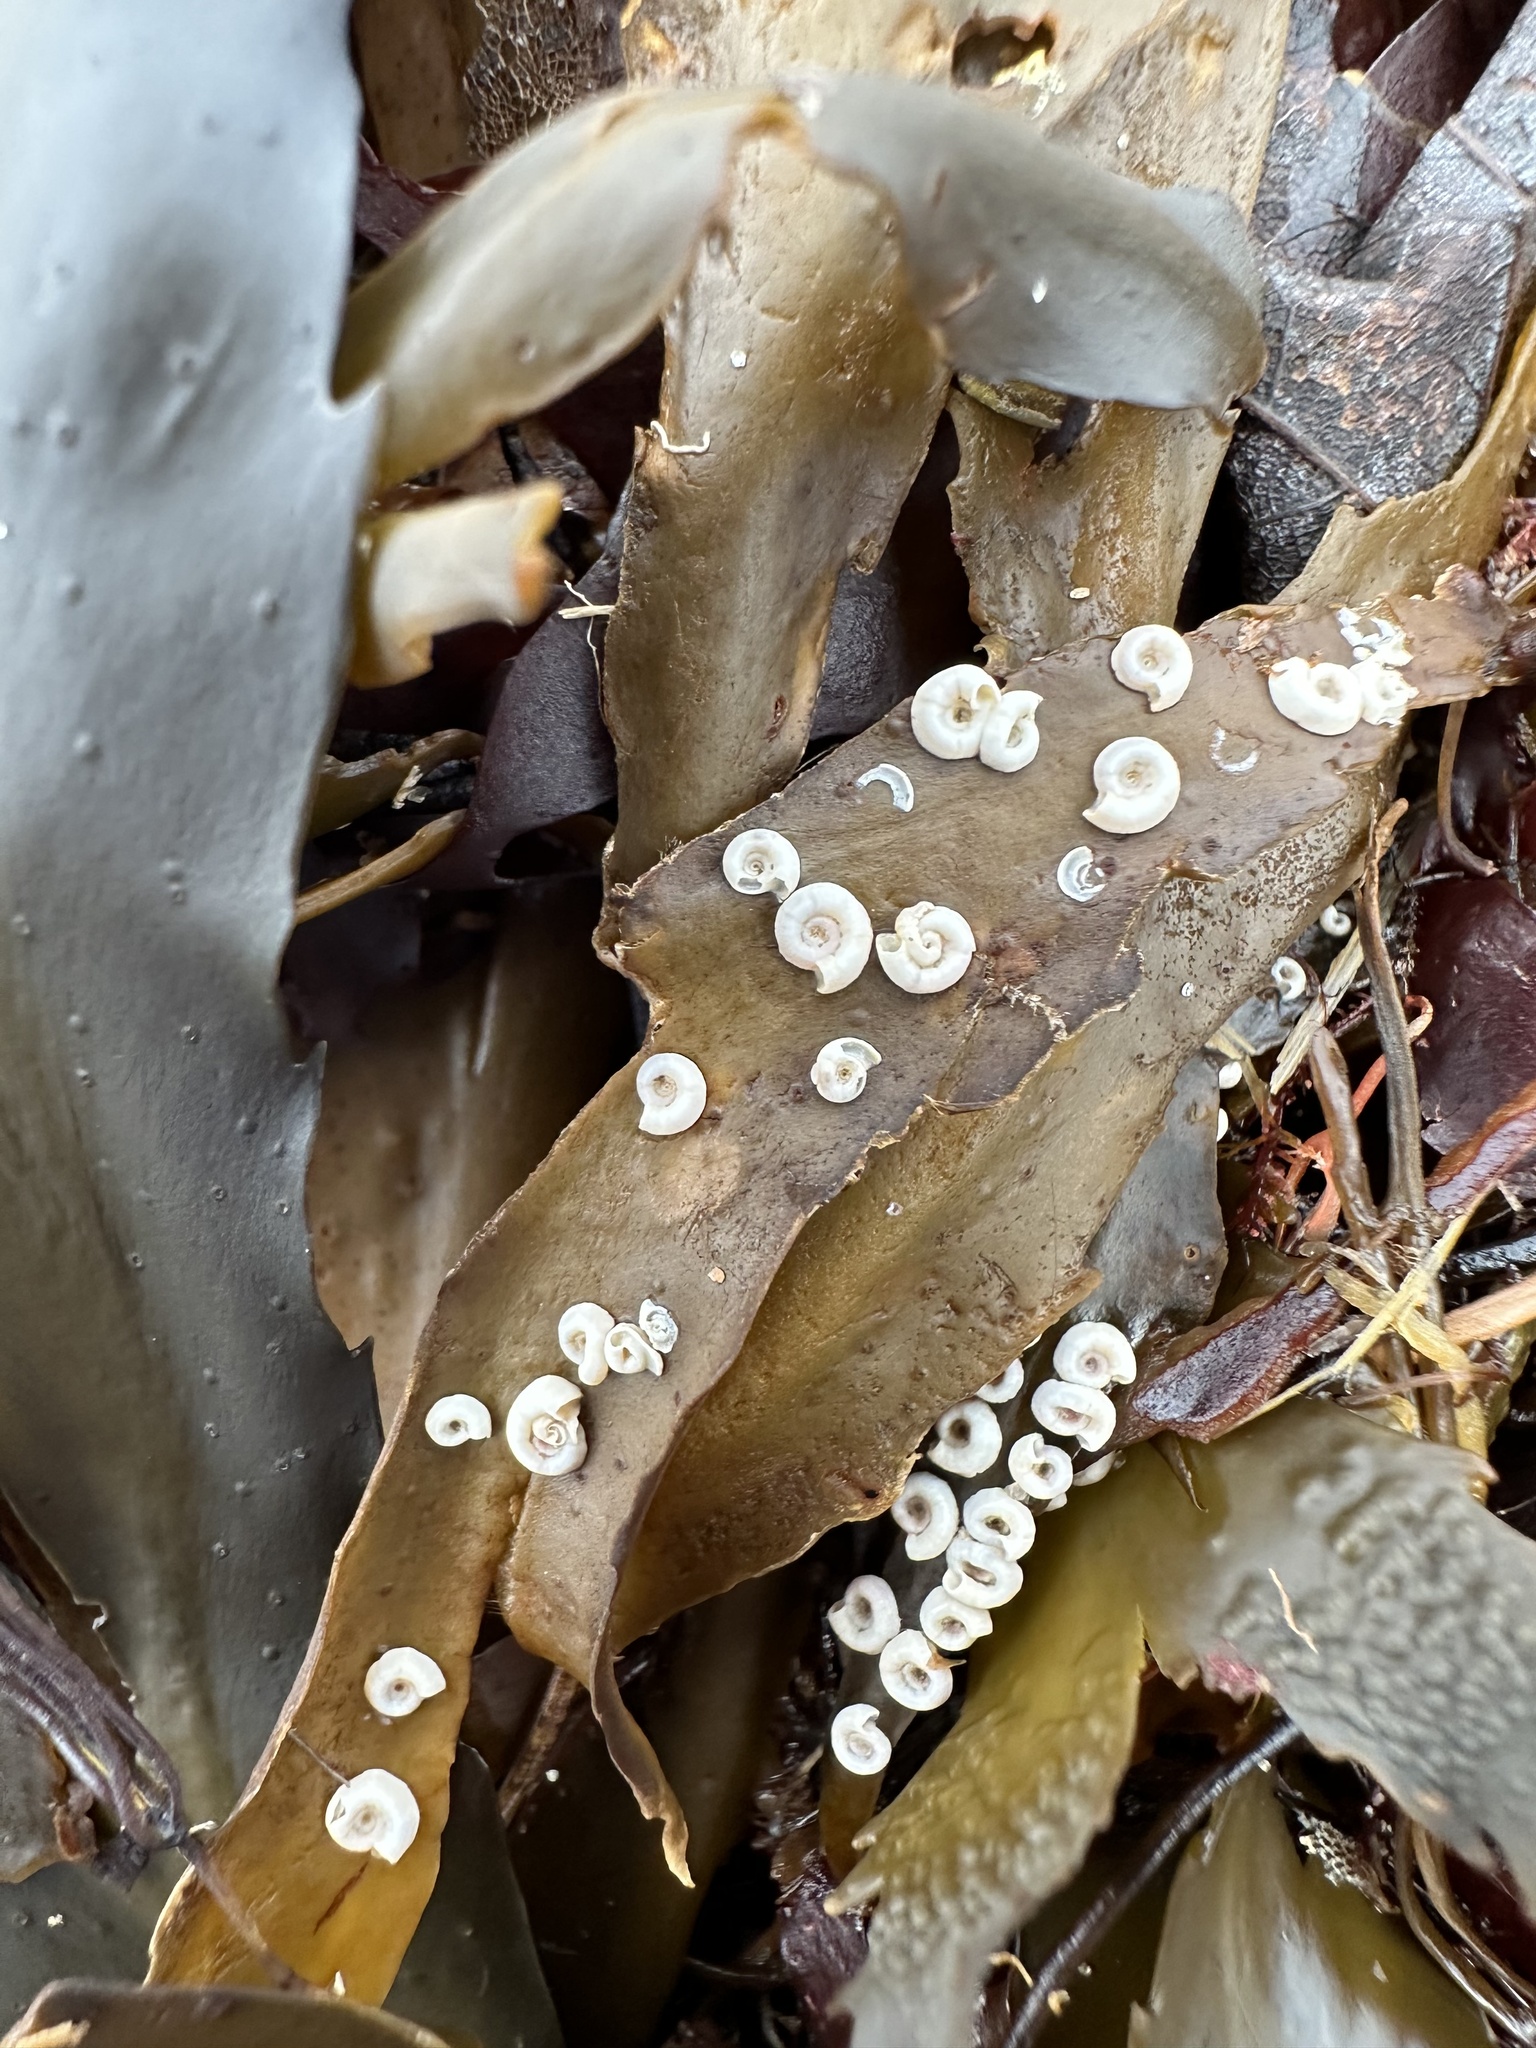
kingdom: Animalia
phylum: Annelida
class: Polychaeta
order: Sabellida
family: Serpulidae
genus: Spirorbis
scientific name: Spirorbis spirorbis
